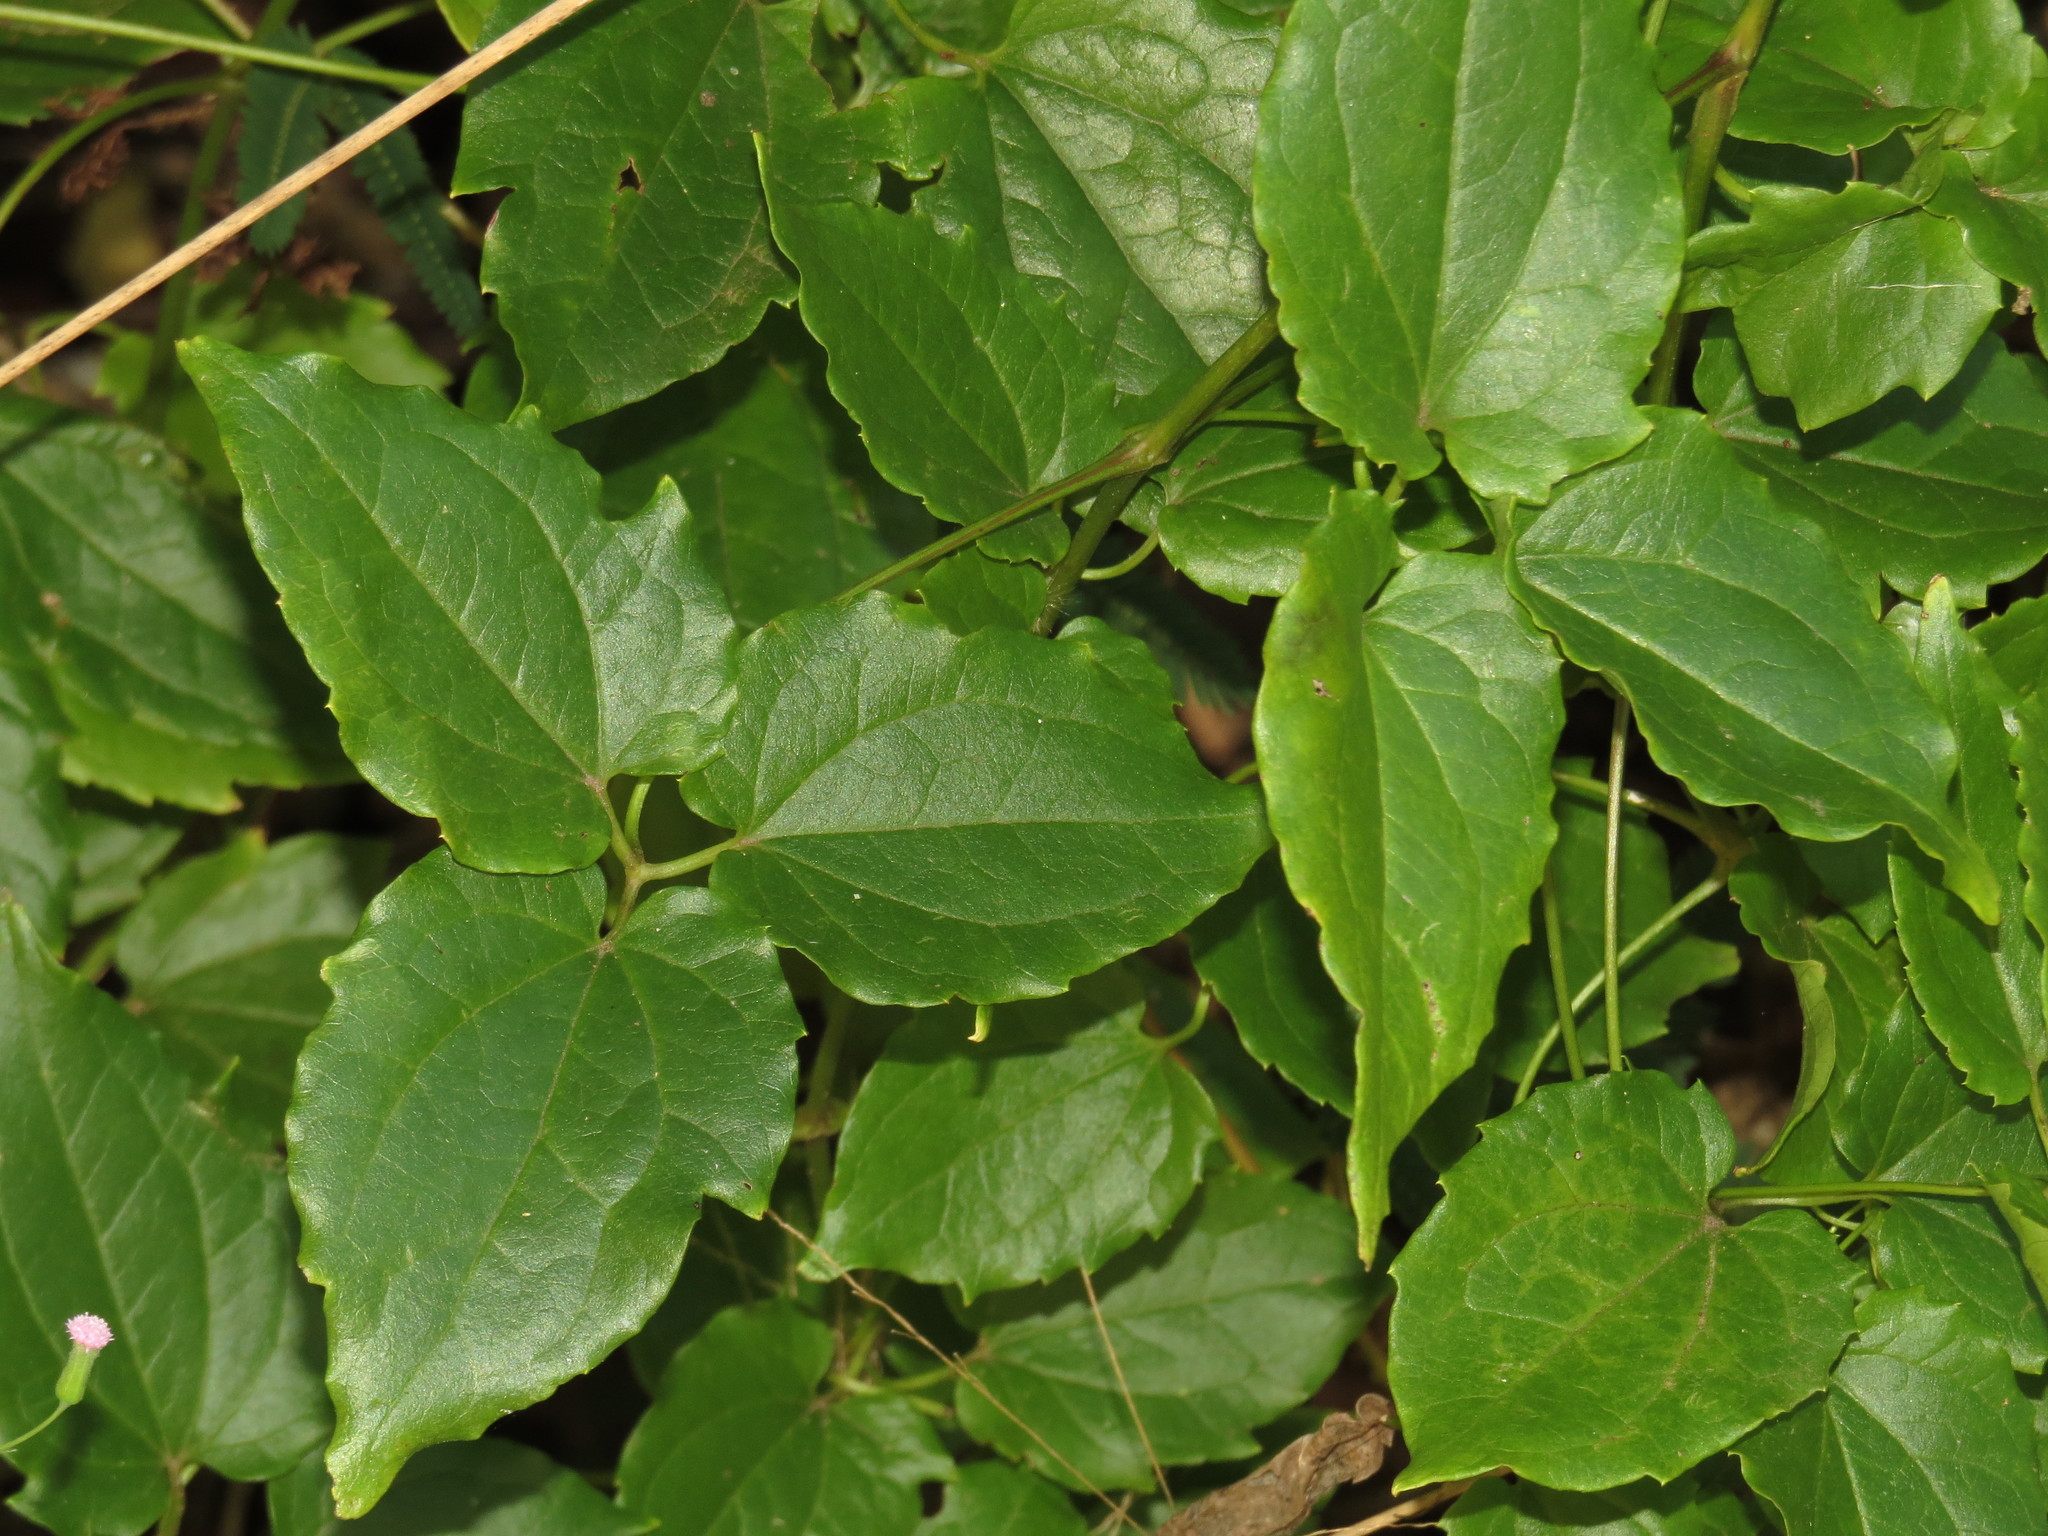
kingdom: Plantae
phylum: Tracheophyta
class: Magnoliopsida
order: Ranunculales
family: Ranunculaceae
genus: Clematis
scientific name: Clematis pickeringii
